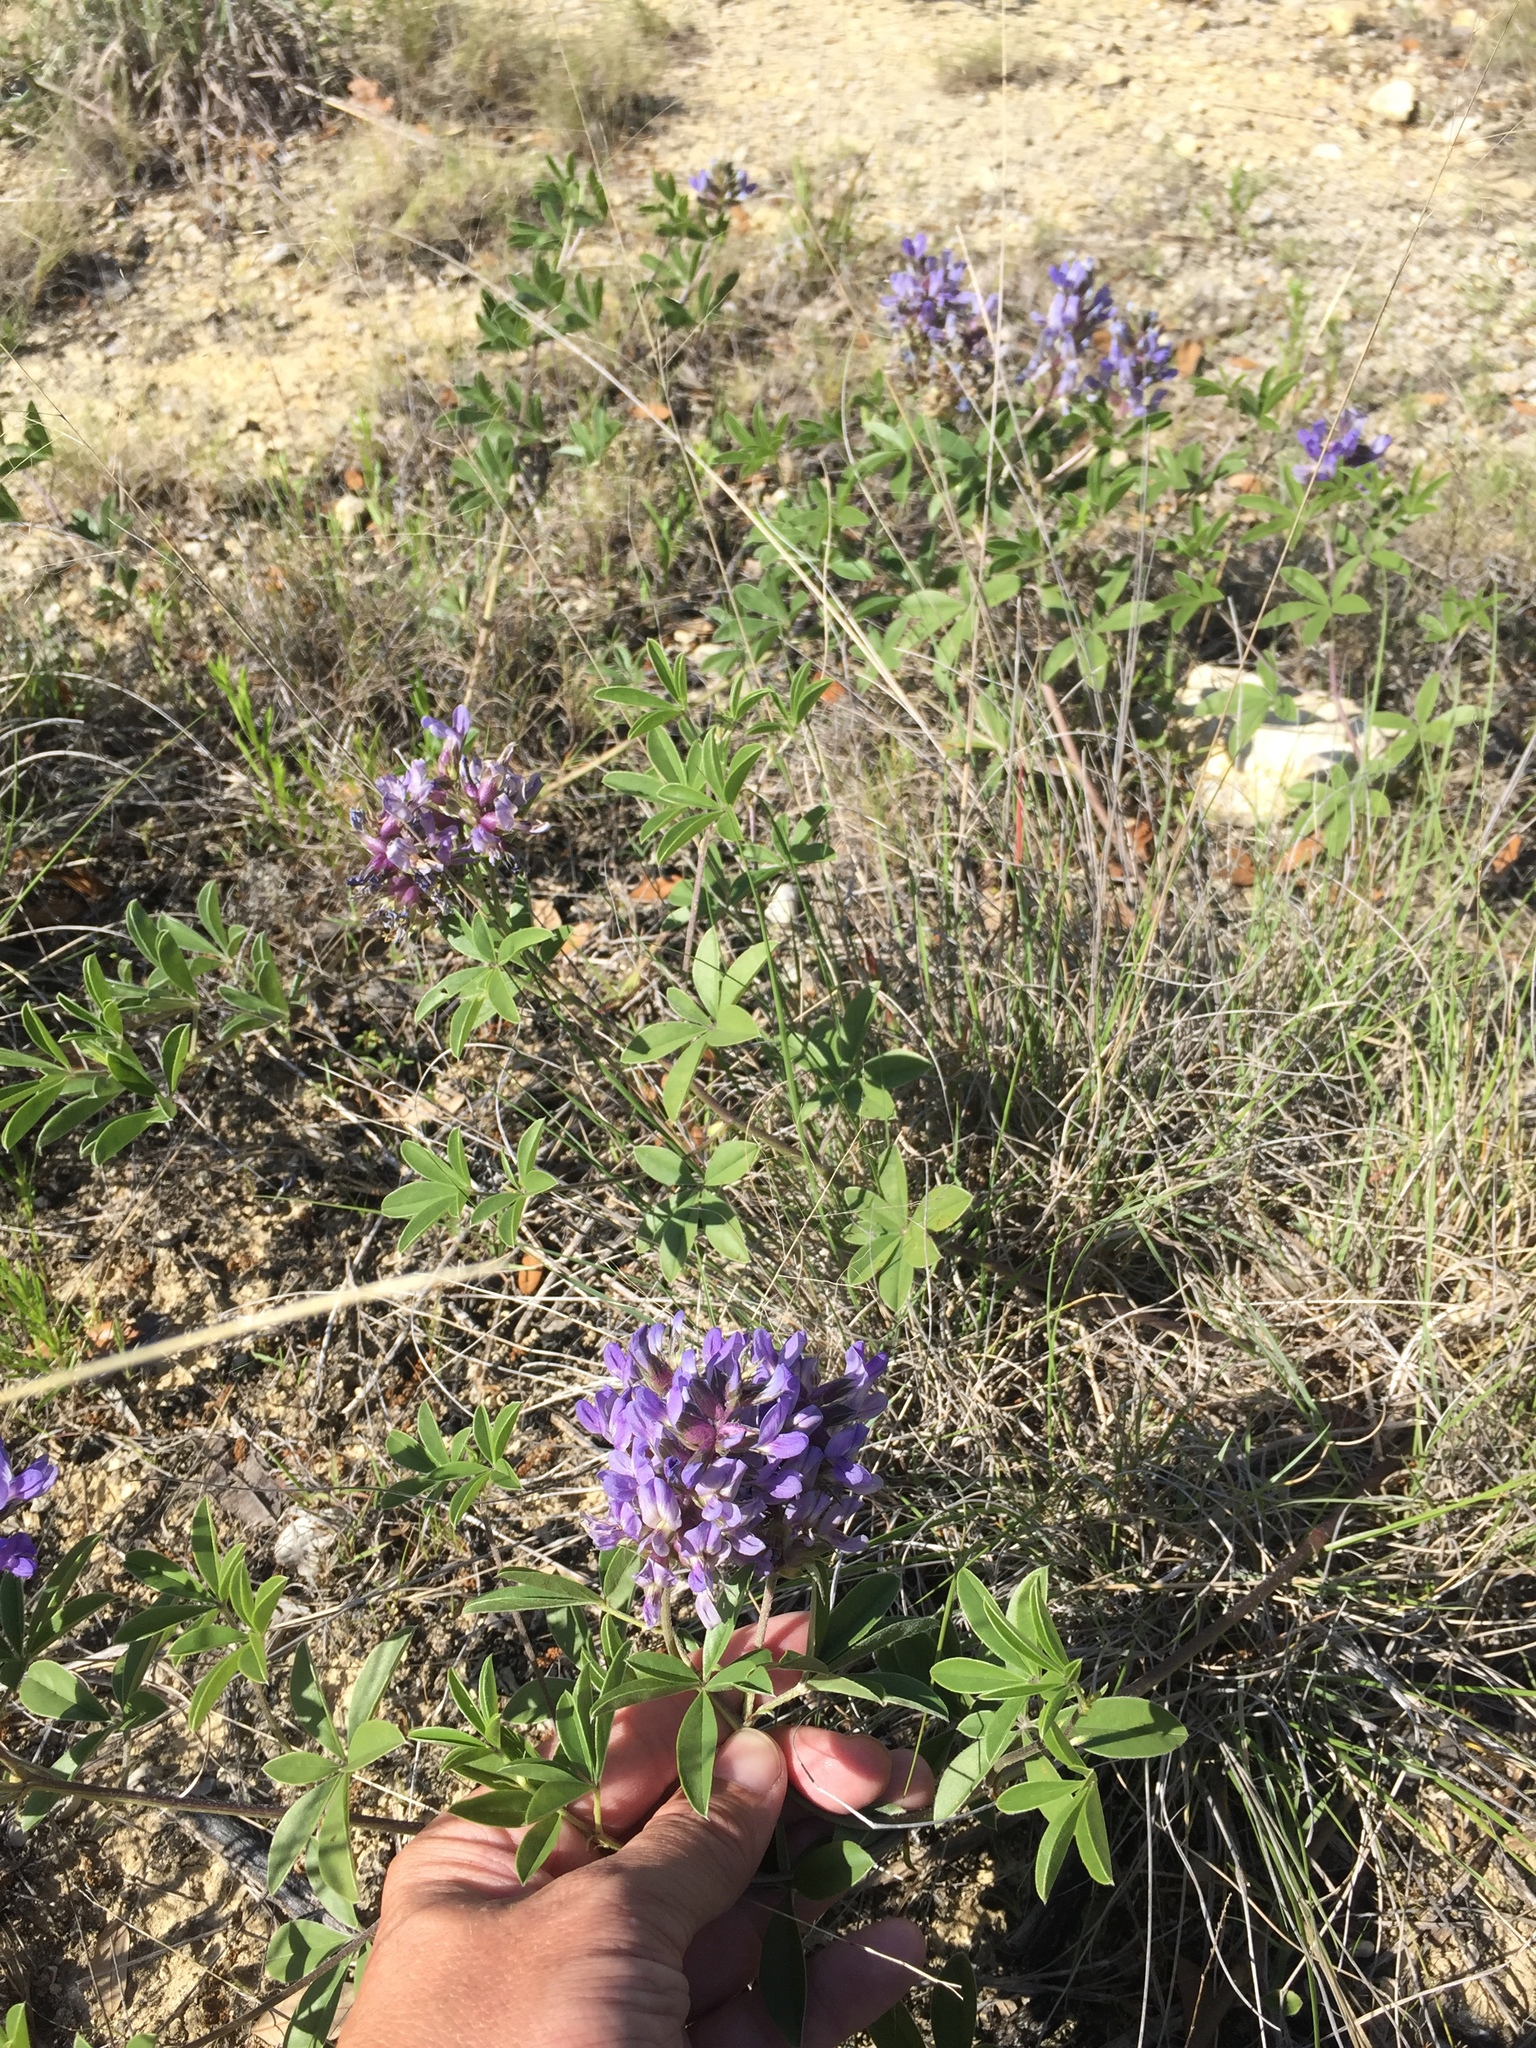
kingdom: Plantae
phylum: Tracheophyta
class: Magnoliopsida
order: Fabales
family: Fabaceae
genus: Pediomelum
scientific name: Pediomelum cuspidatum
